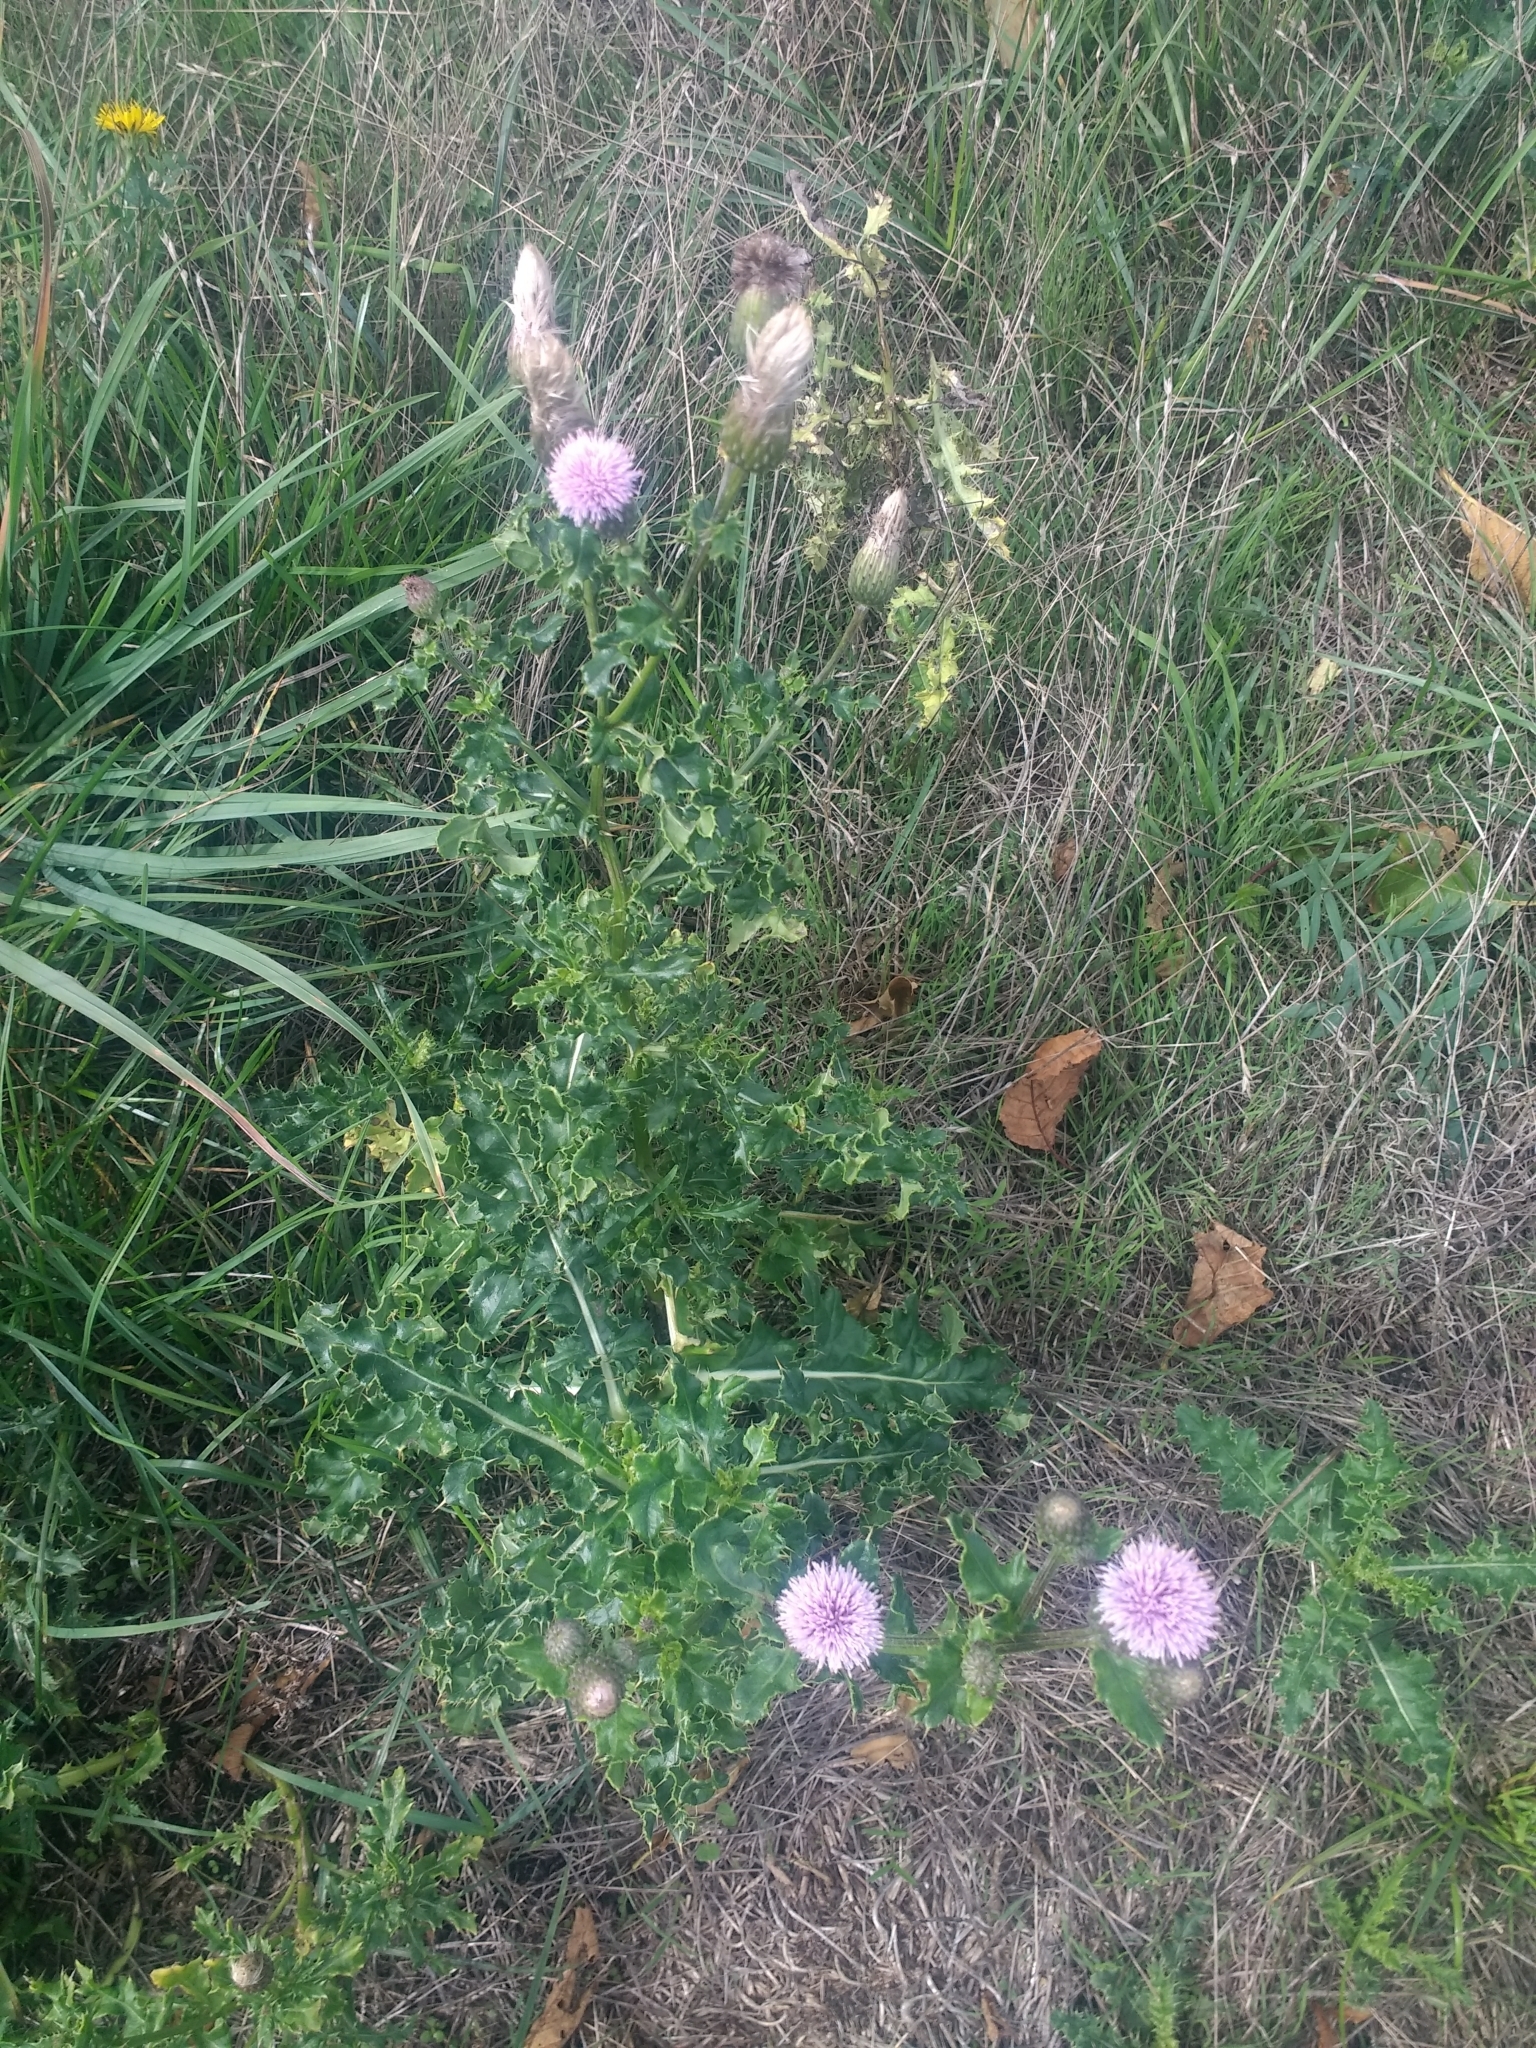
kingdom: Plantae
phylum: Tracheophyta
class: Magnoliopsida
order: Asterales
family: Asteraceae
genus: Cirsium
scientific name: Cirsium arvense
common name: Creeping thistle
